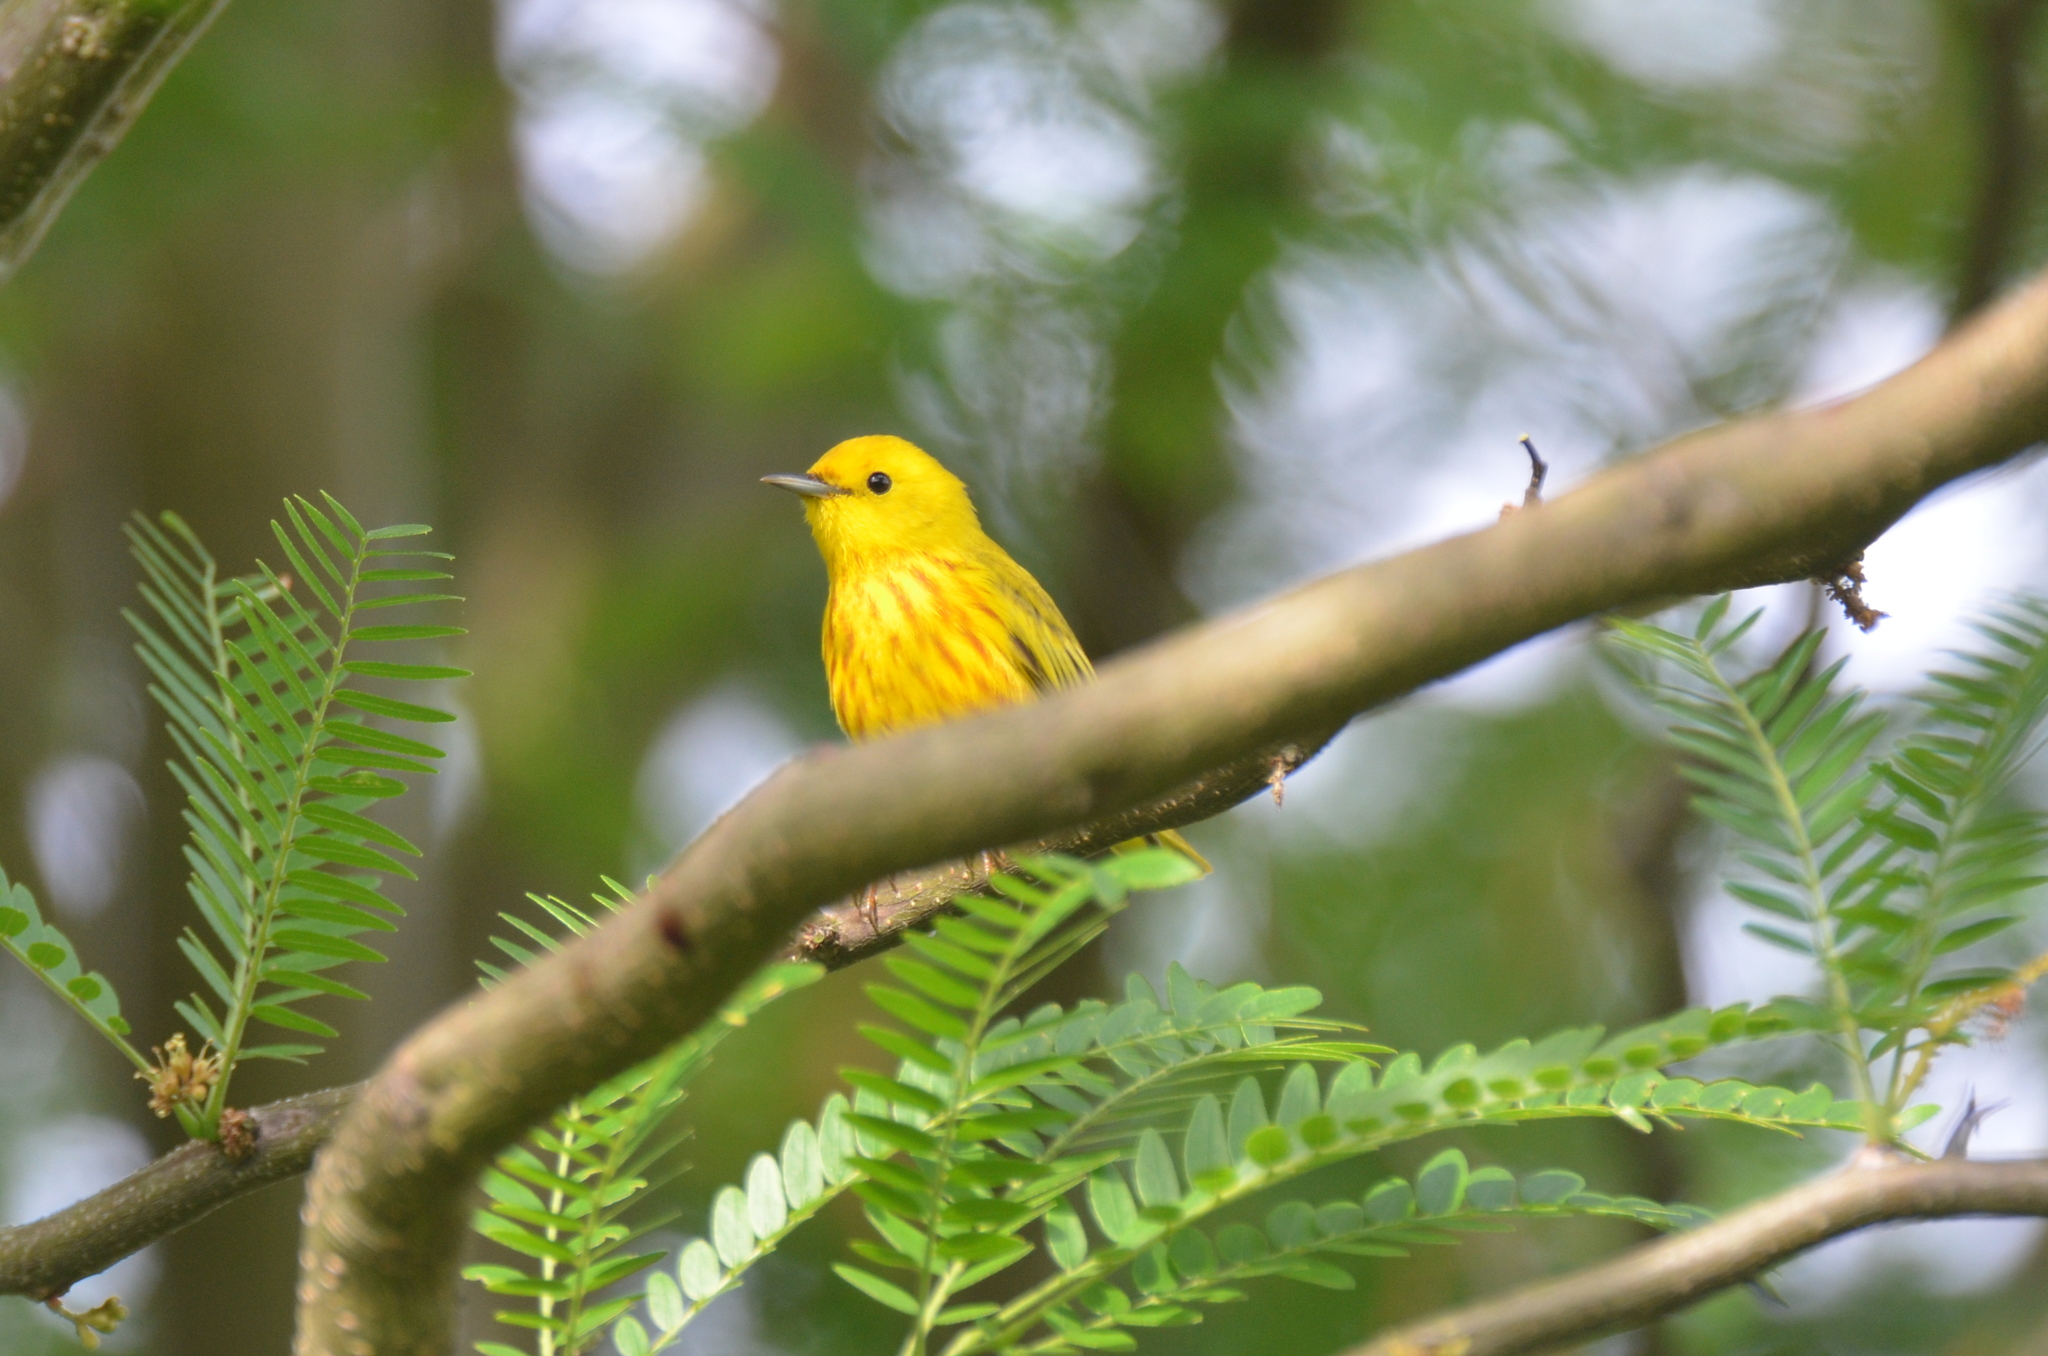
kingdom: Animalia
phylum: Chordata
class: Aves
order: Passeriformes
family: Parulidae
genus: Setophaga
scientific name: Setophaga petechia
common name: Yellow warbler
